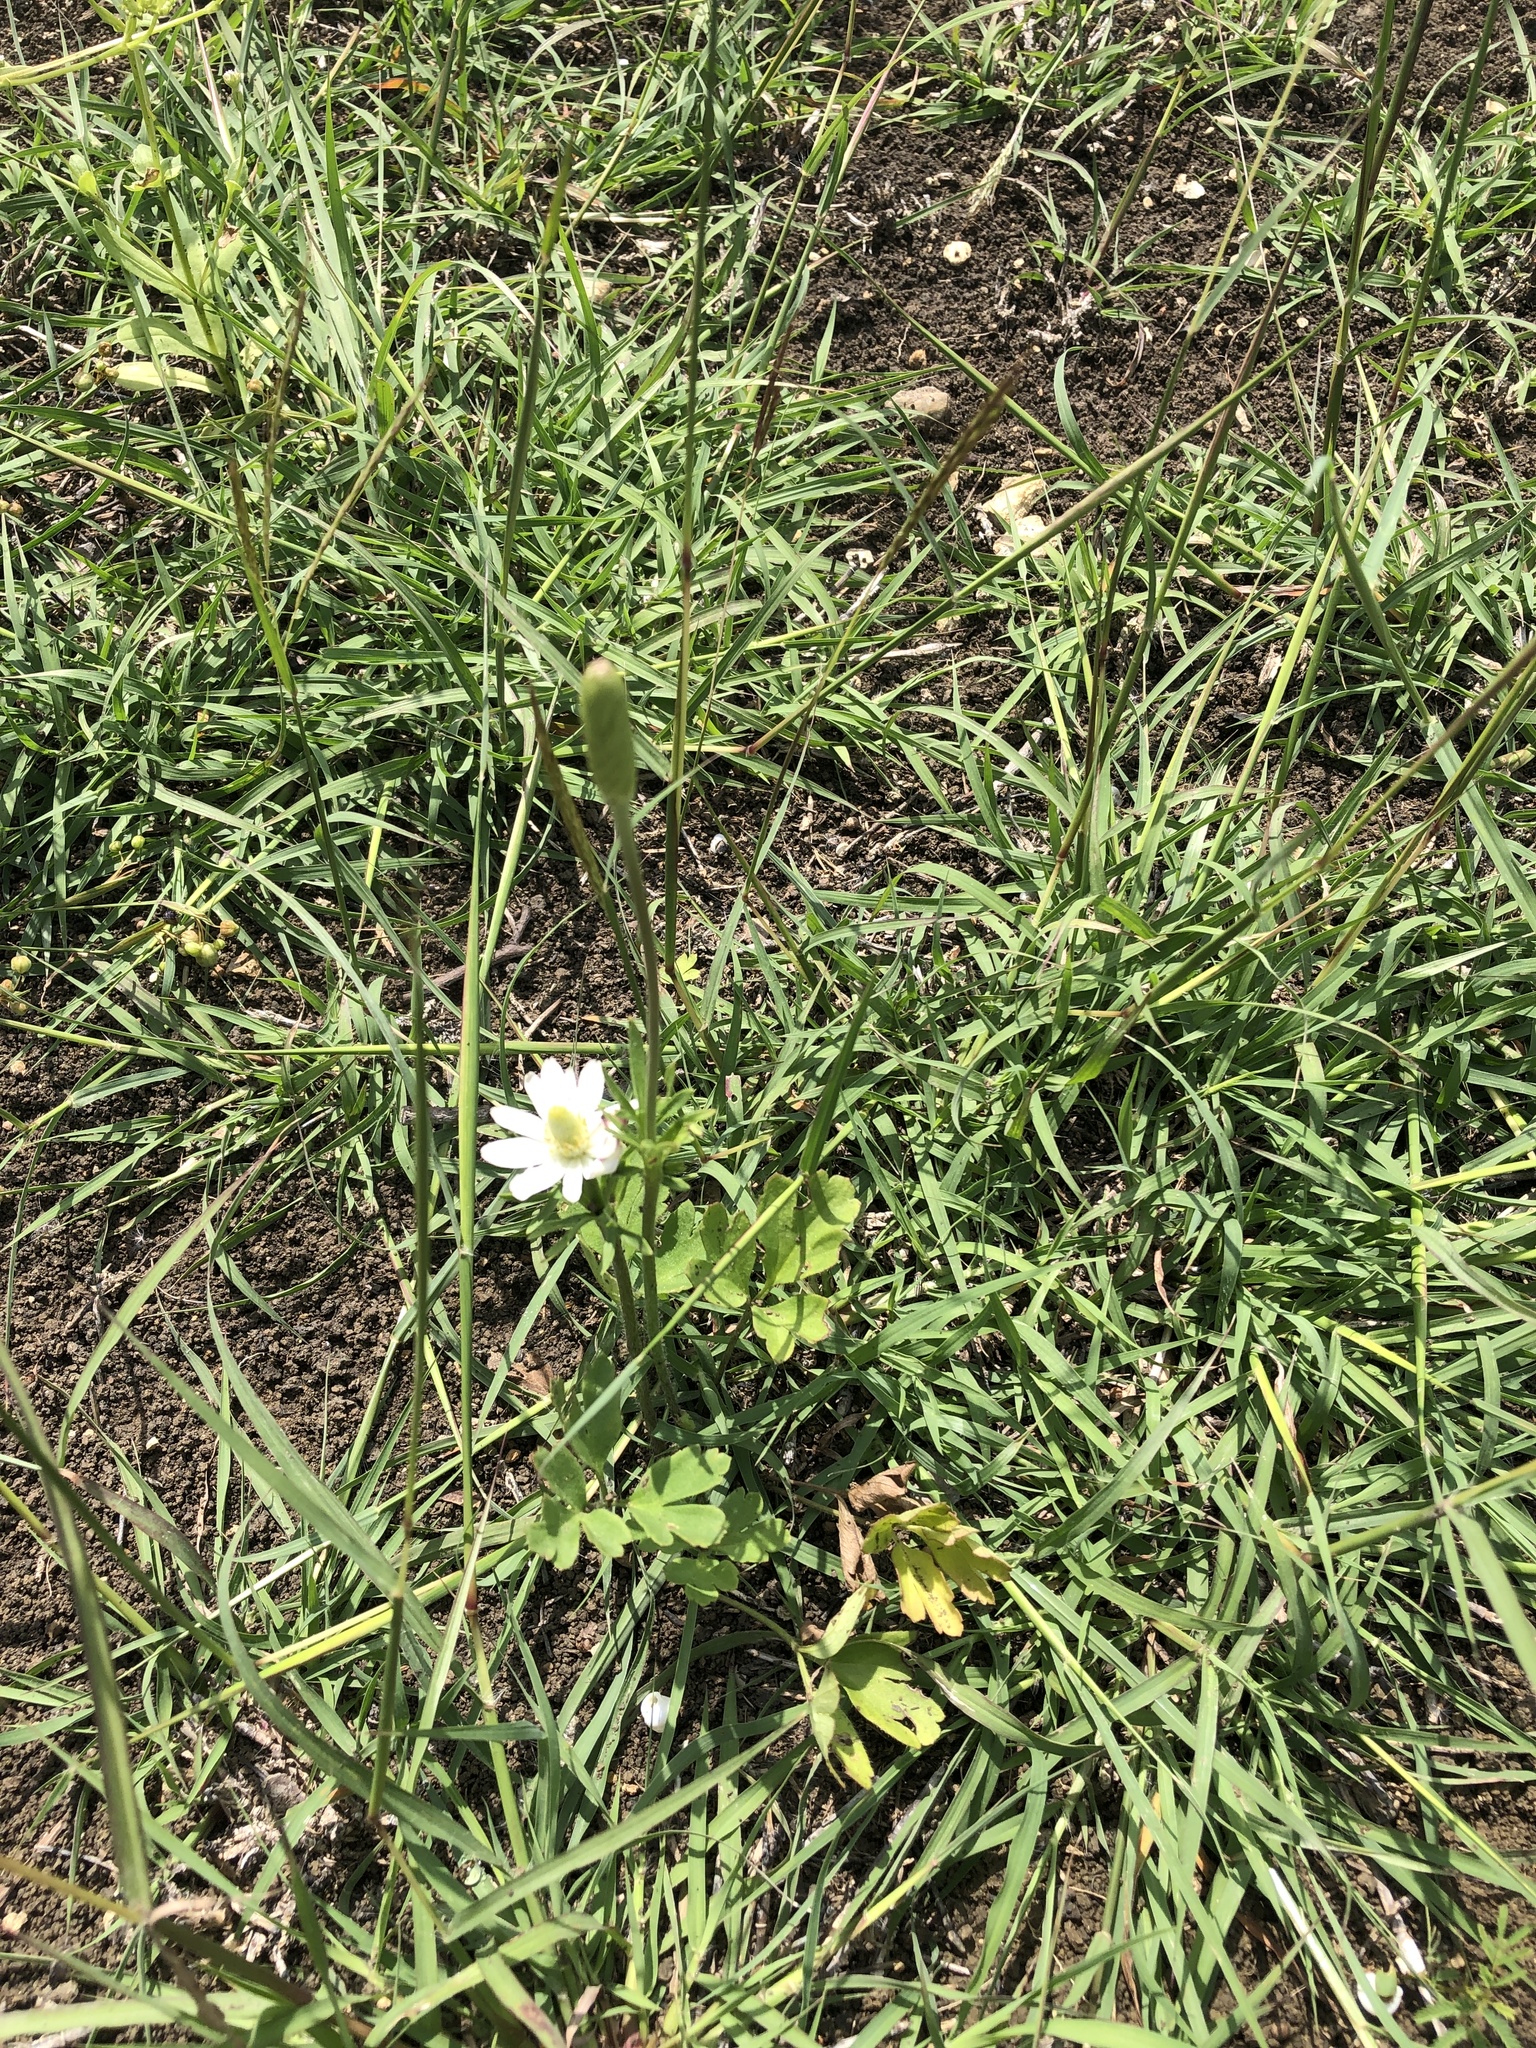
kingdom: Plantae
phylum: Tracheophyta
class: Magnoliopsida
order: Ranunculales
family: Ranunculaceae
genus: Anemone
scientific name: Anemone berlandieri
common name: Ten-petal anemone
